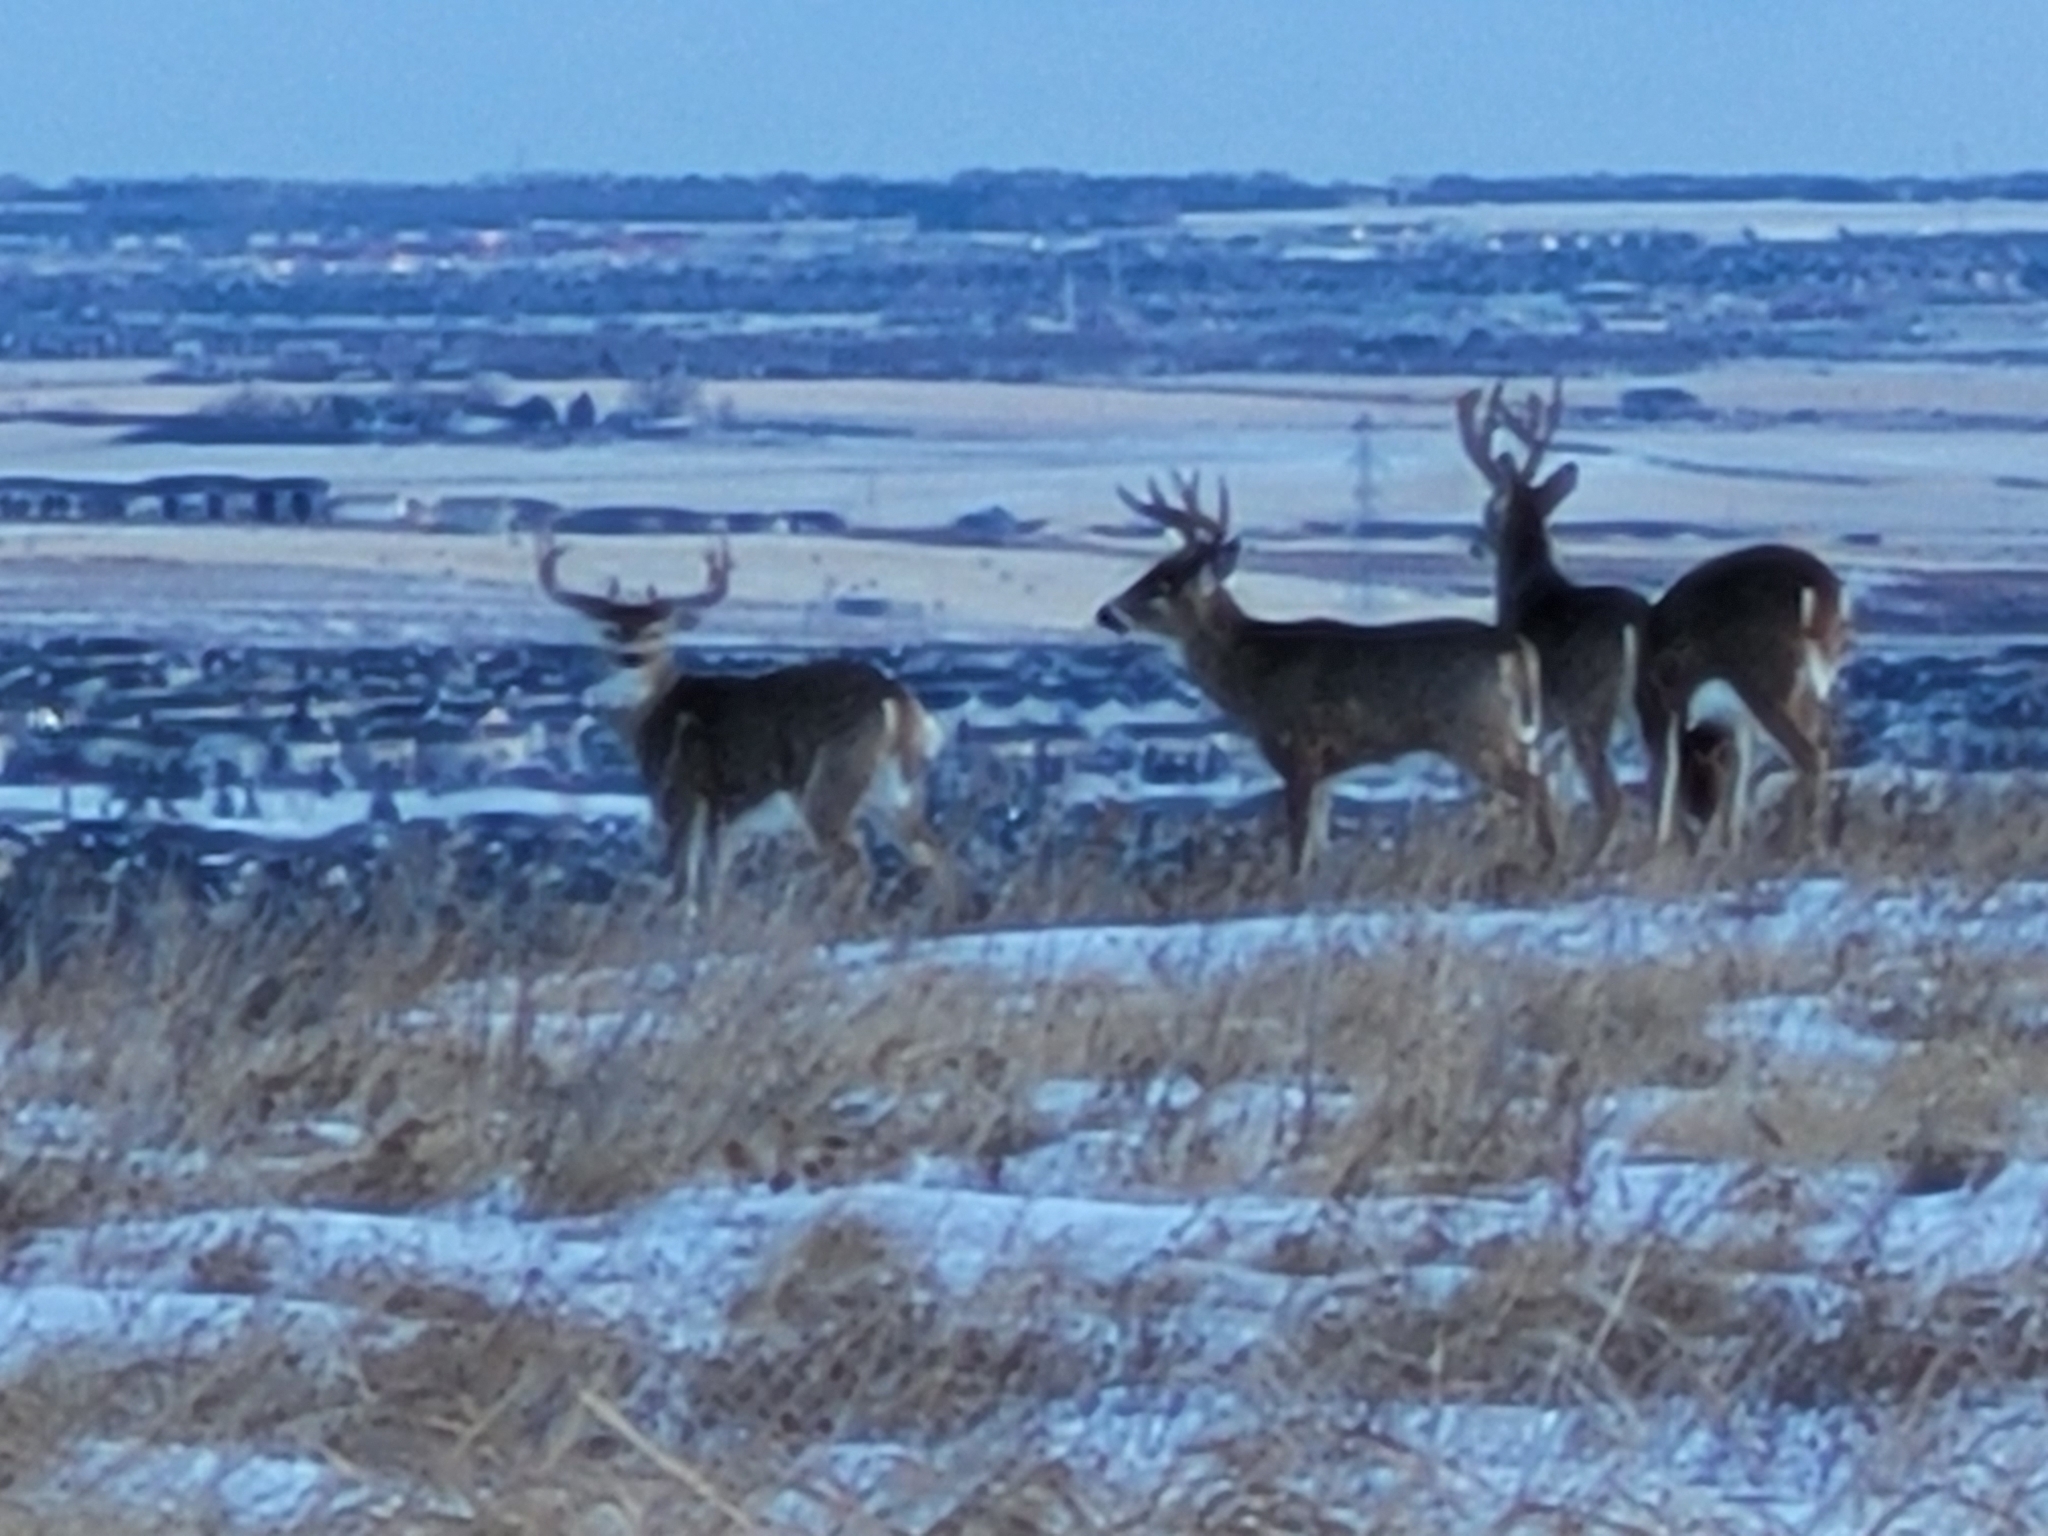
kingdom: Animalia
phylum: Chordata
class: Mammalia
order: Artiodactyla
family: Cervidae
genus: Odocoileus
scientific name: Odocoileus virginianus
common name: White-tailed deer
